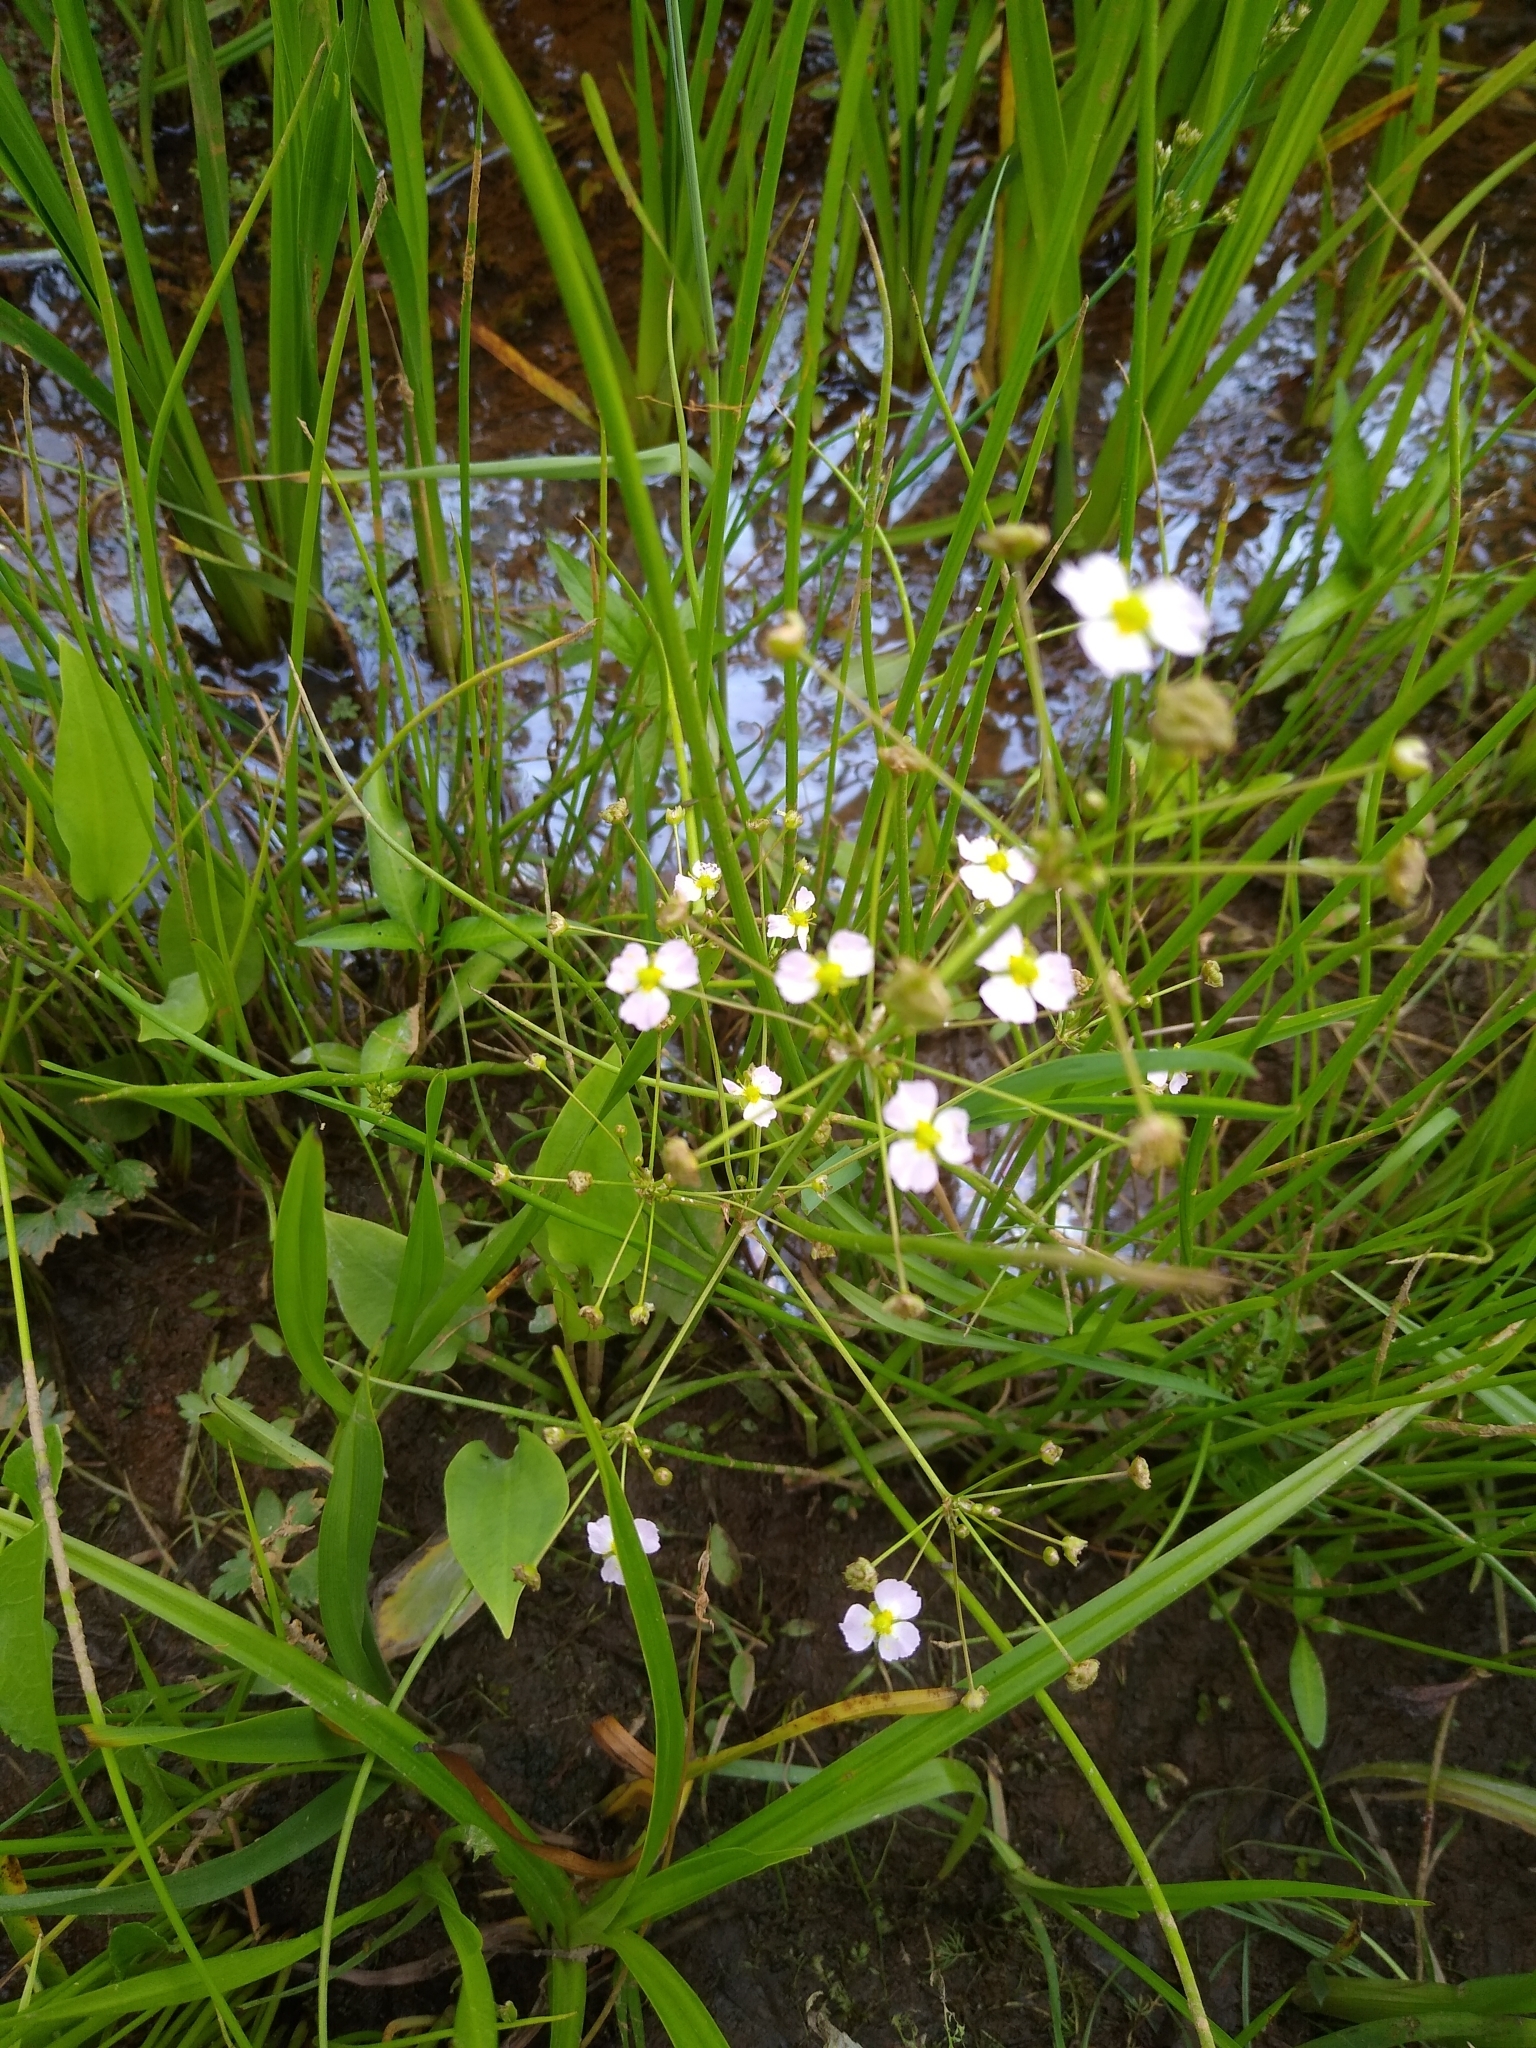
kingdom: Plantae
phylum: Tracheophyta
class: Liliopsida
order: Alismatales
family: Alismataceae
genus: Alisma
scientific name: Alisma plantago-aquatica
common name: Water-plantain
